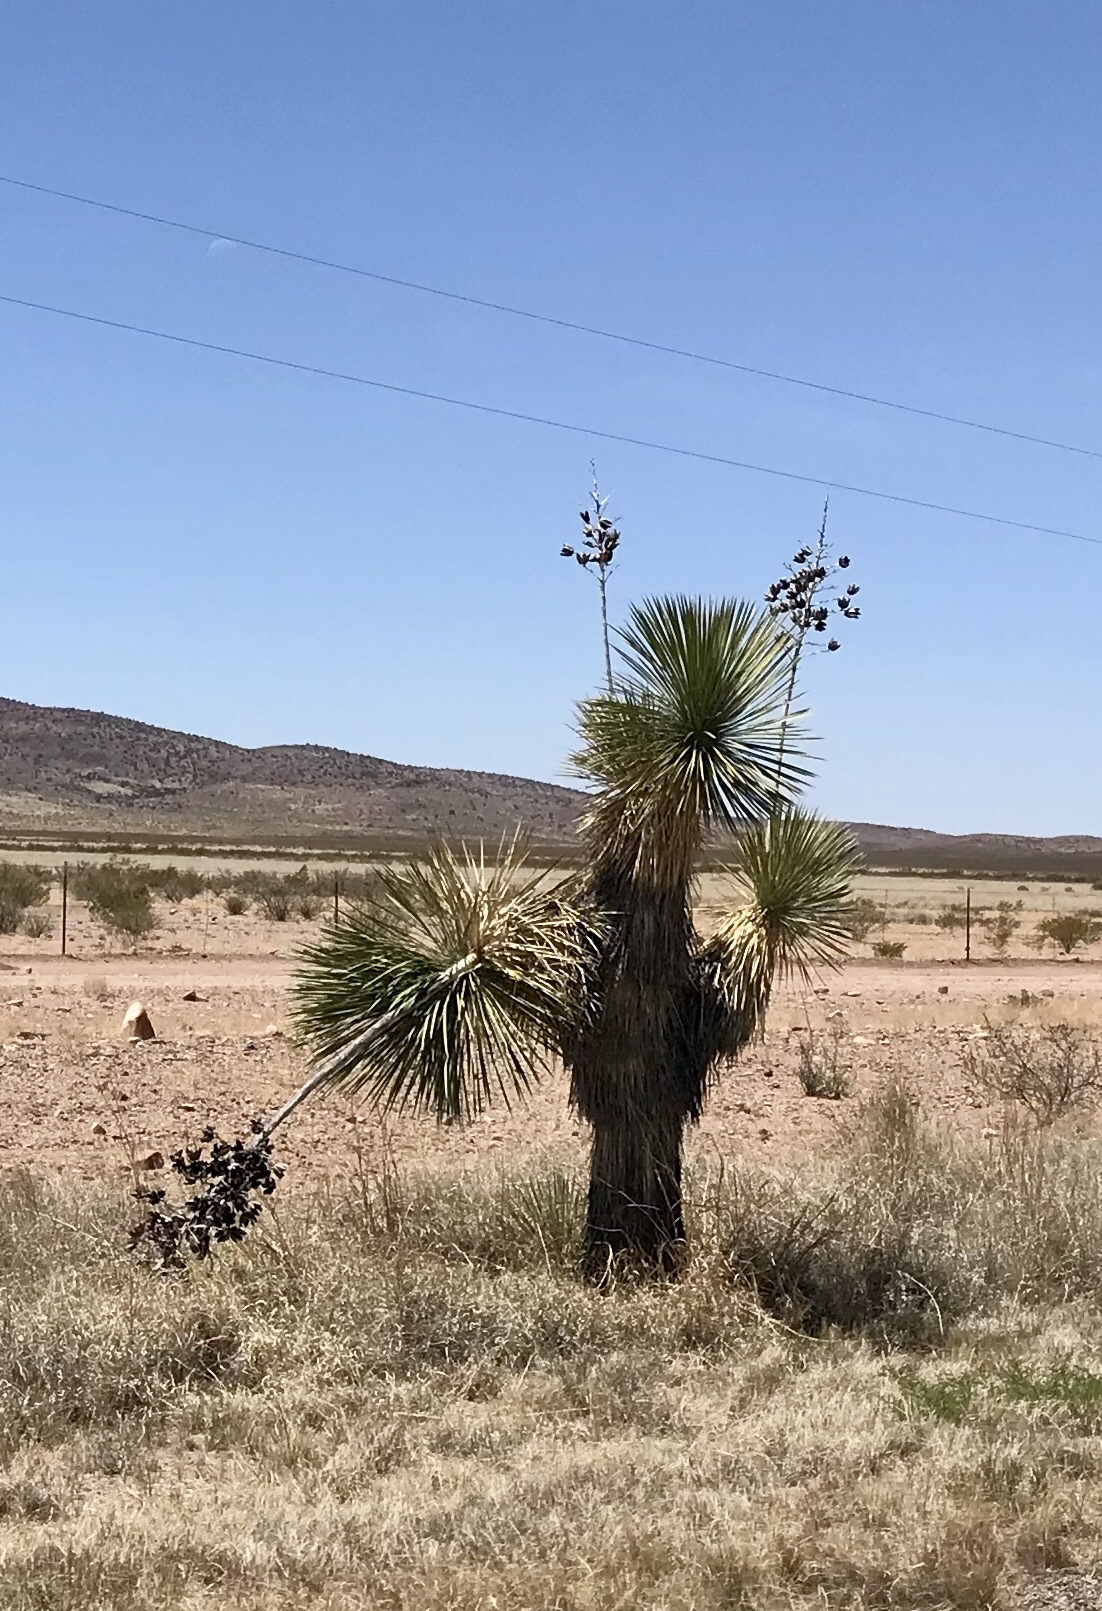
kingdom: Plantae
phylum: Tracheophyta
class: Liliopsida
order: Asparagales
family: Asparagaceae
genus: Yucca
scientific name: Yucca elata
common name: Palmella
